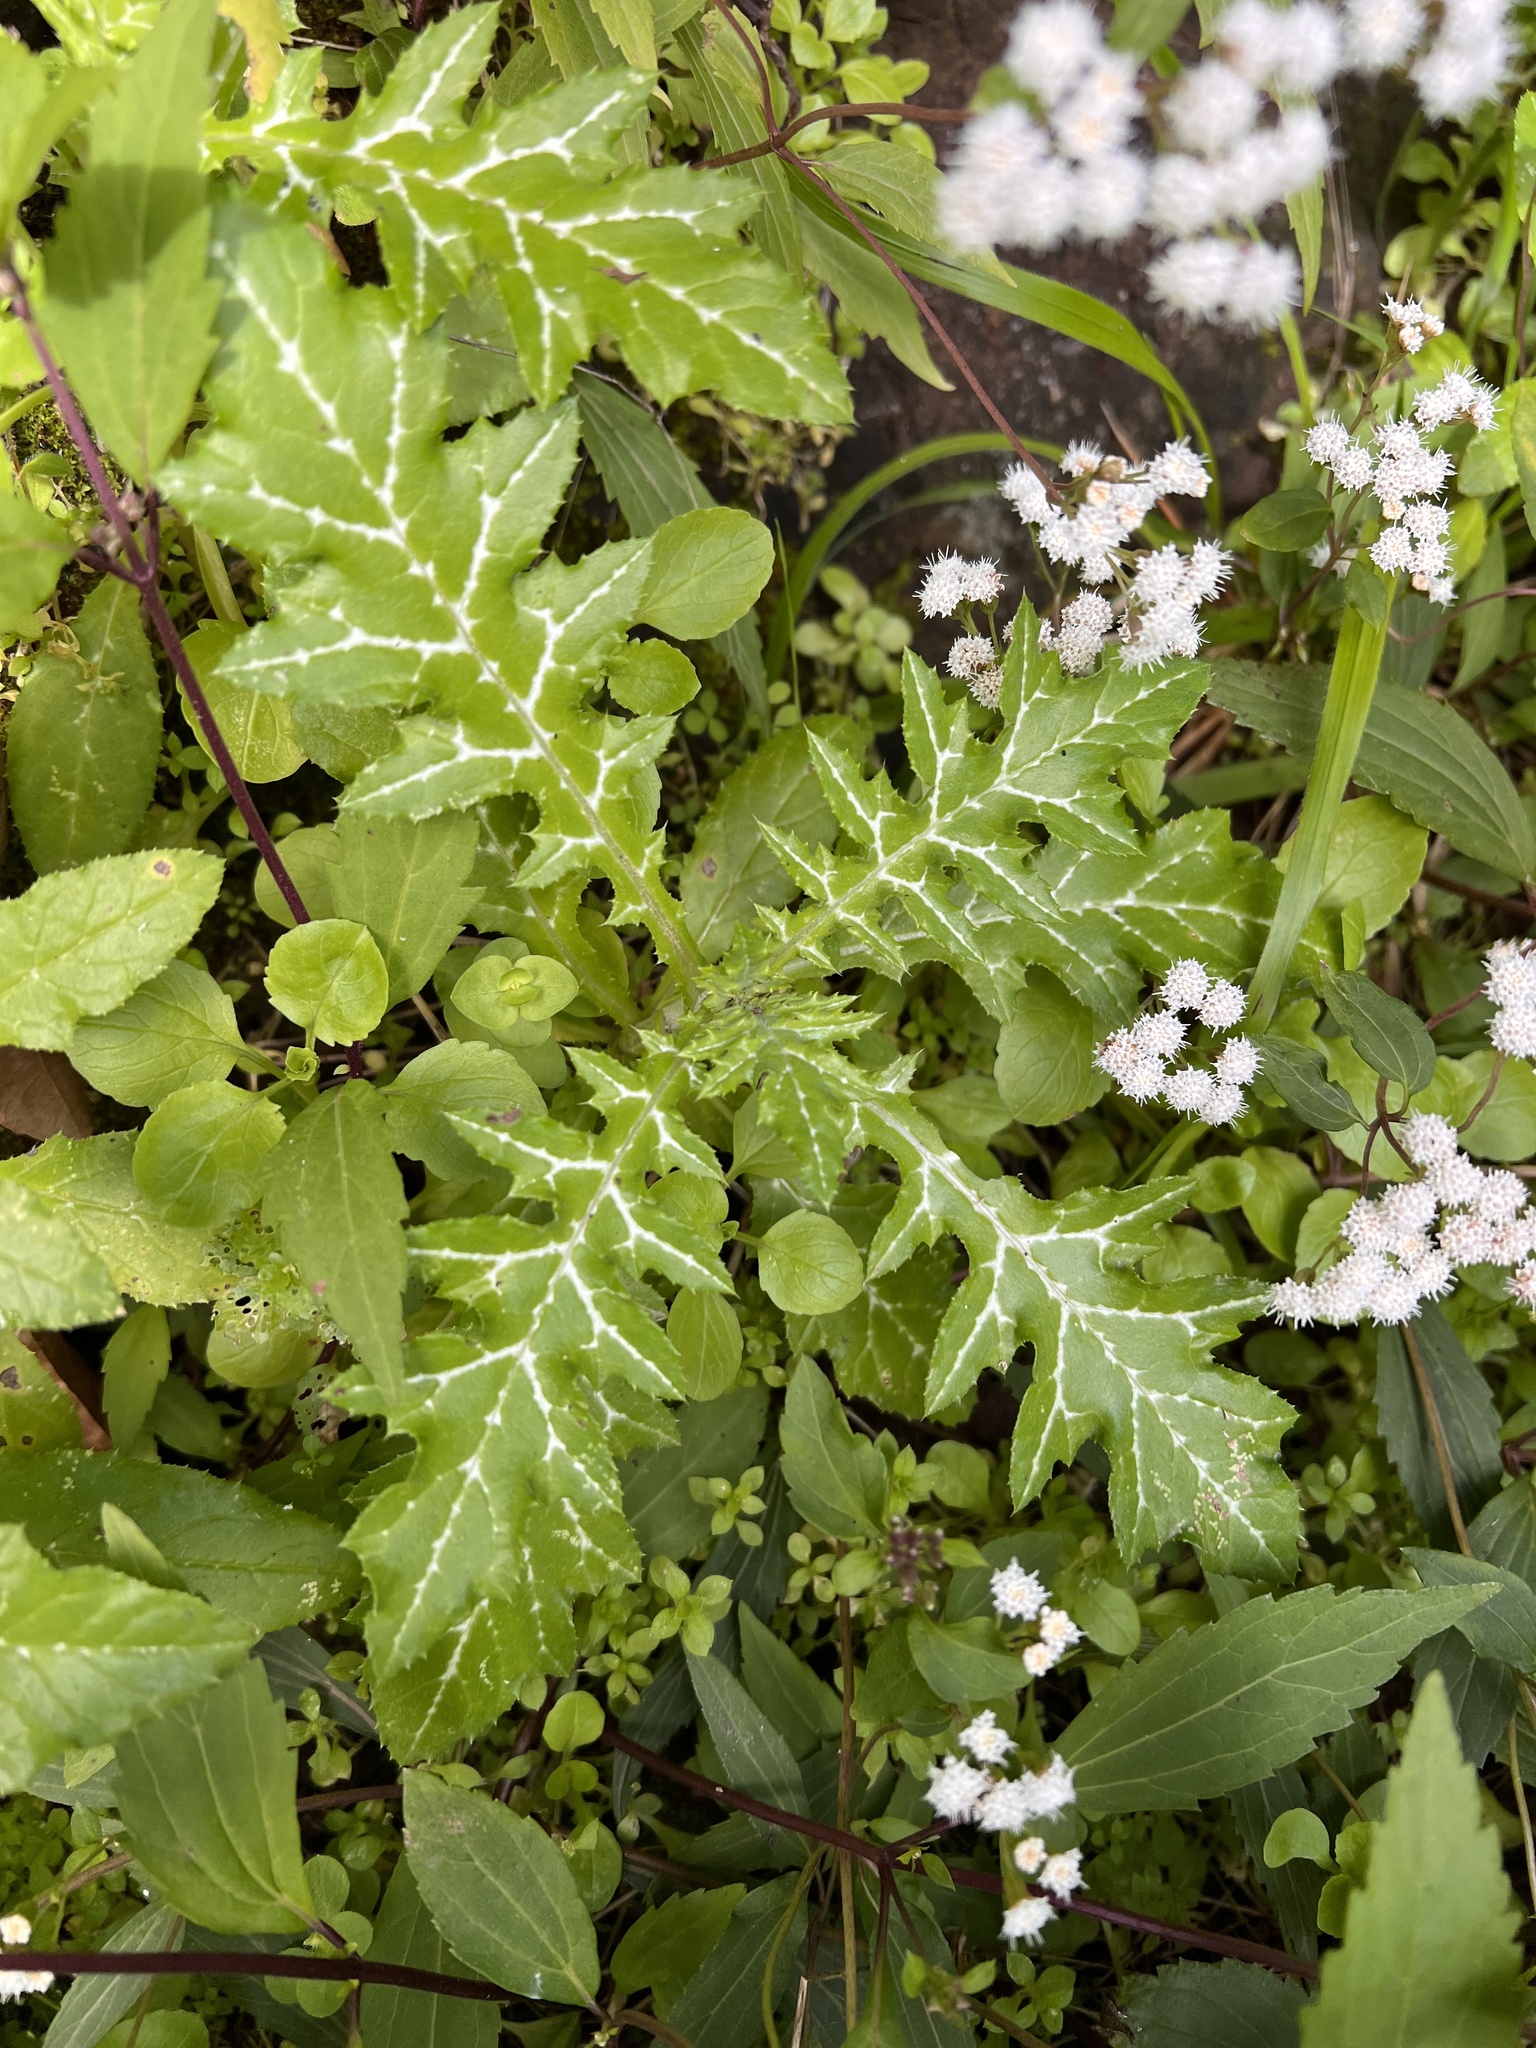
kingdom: Plantae
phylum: Tracheophyta
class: Magnoliopsida
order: Asterales
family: Asteraceae
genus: Galactites
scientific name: Galactites tomentosa
